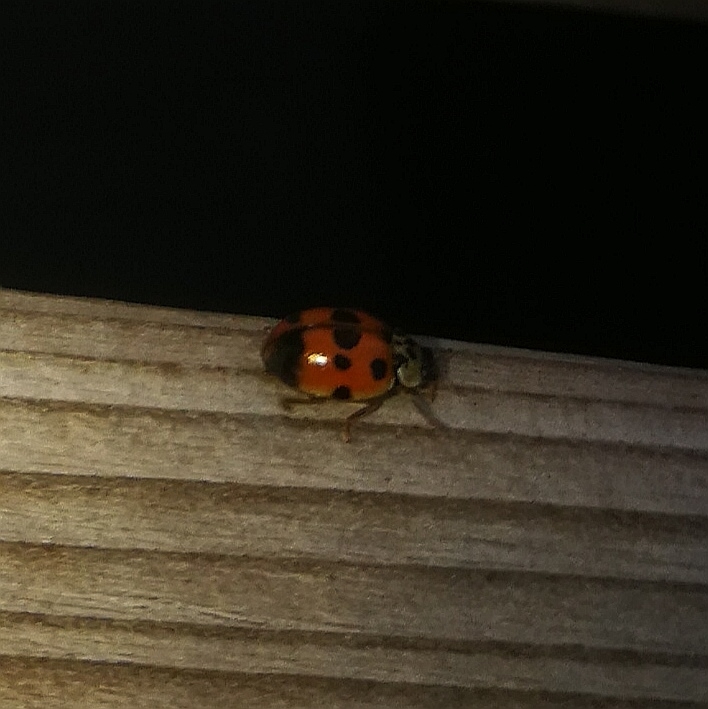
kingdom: Animalia
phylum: Arthropoda
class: Insecta
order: Coleoptera
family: Coccinellidae
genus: Adalia
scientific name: Adalia decempunctata
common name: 10-spot ladybird
